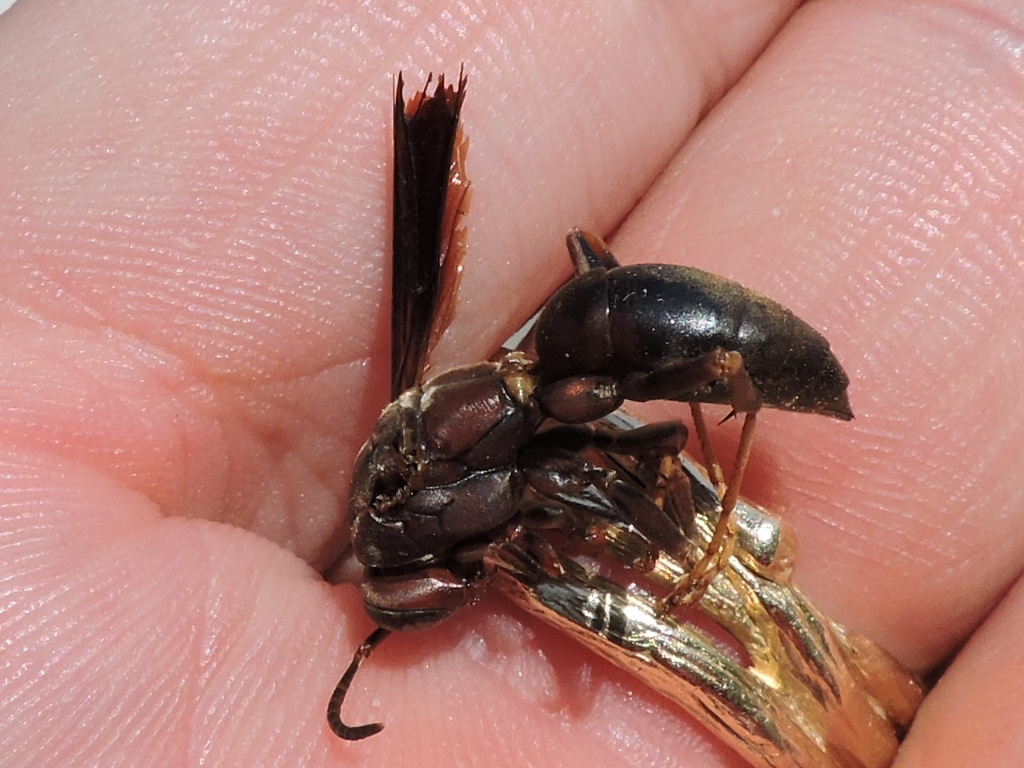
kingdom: Animalia
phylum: Arthropoda
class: Insecta
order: Hymenoptera
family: Eumenidae
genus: Polistes
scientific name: Polistes metricus
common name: Metric paper wasp
